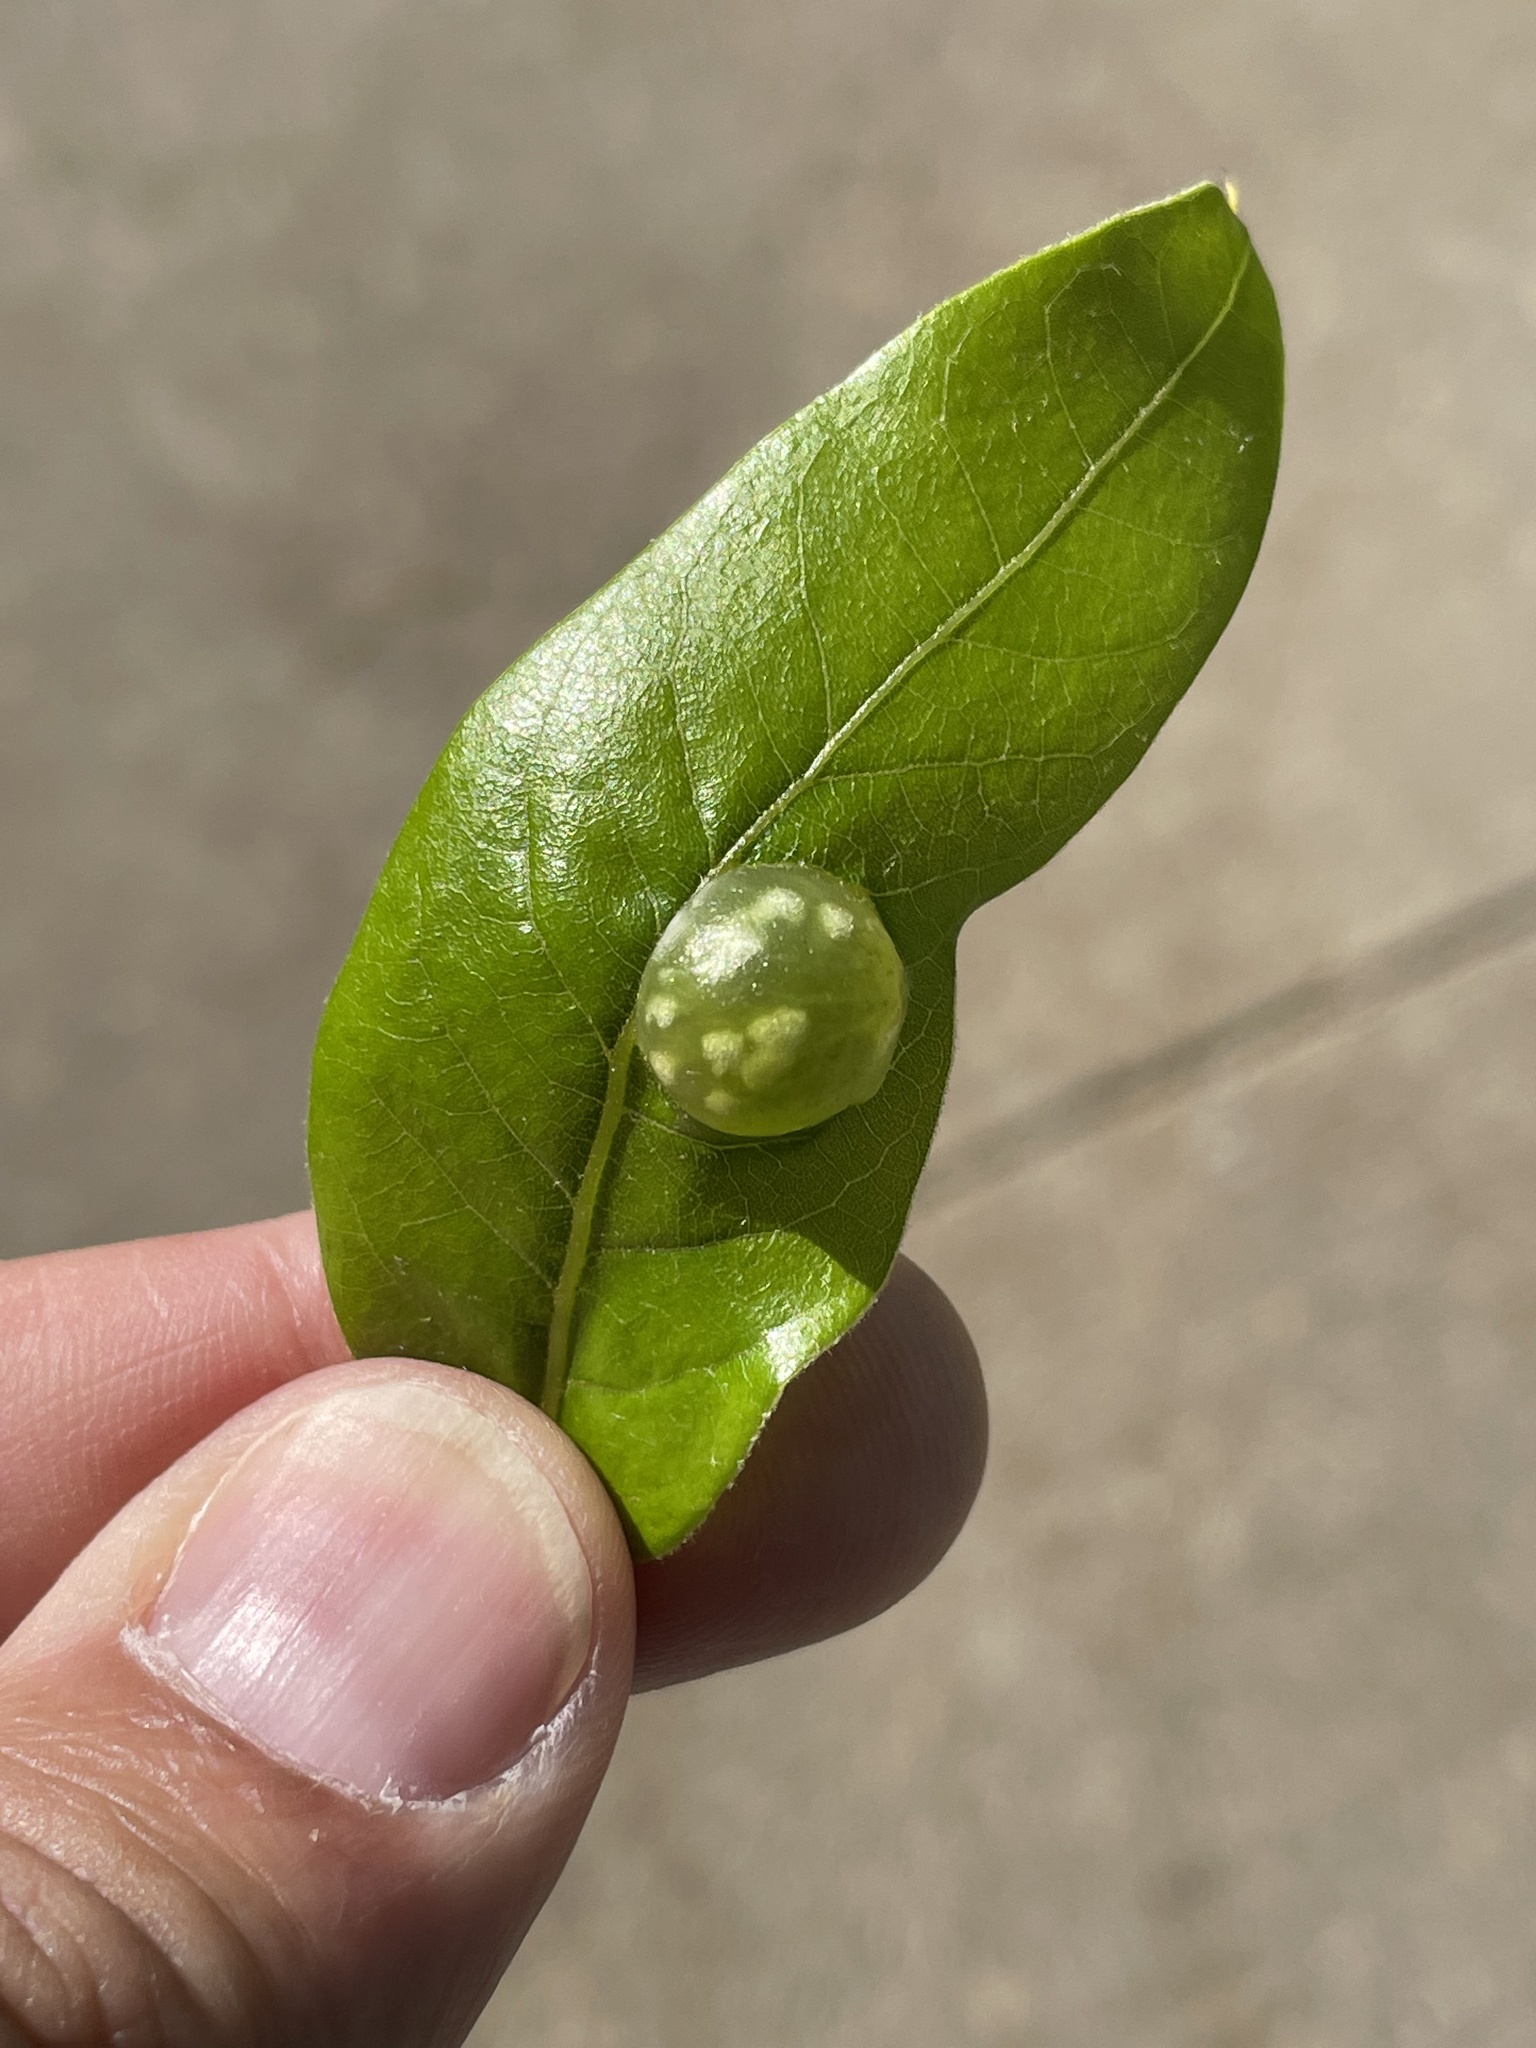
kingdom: Animalia
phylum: Arthropoda
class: Insecta
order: Hymenoptera
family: Cynipidae
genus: Dryocosmus
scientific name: Dryocosmus quercuspalustris
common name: Succulent oak gall wasp
